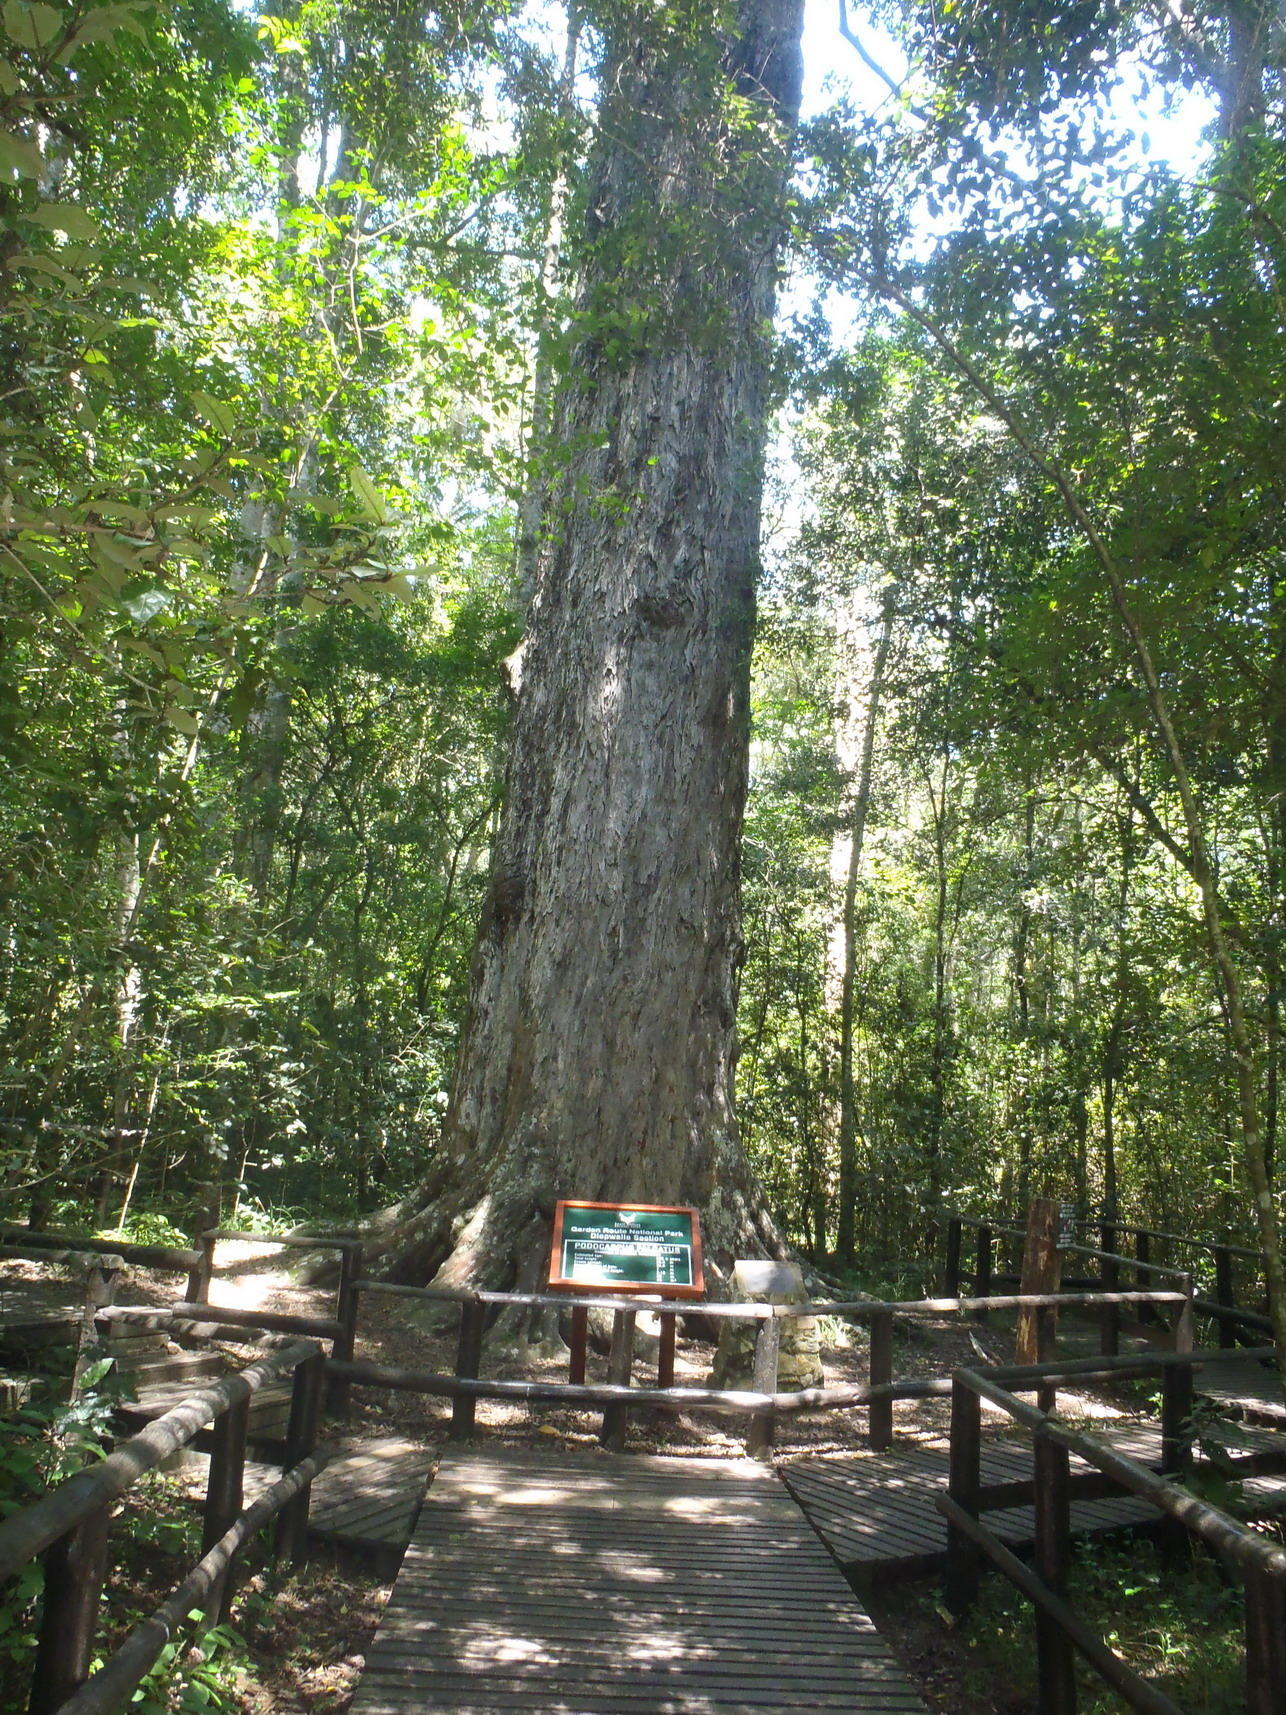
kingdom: Plantae
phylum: Tracheophyta
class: Pinopsida
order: Pinales
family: Podocarpaceae
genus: Afrocarpus
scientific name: Afrocarpus falcatus
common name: Bastard yellowwood
